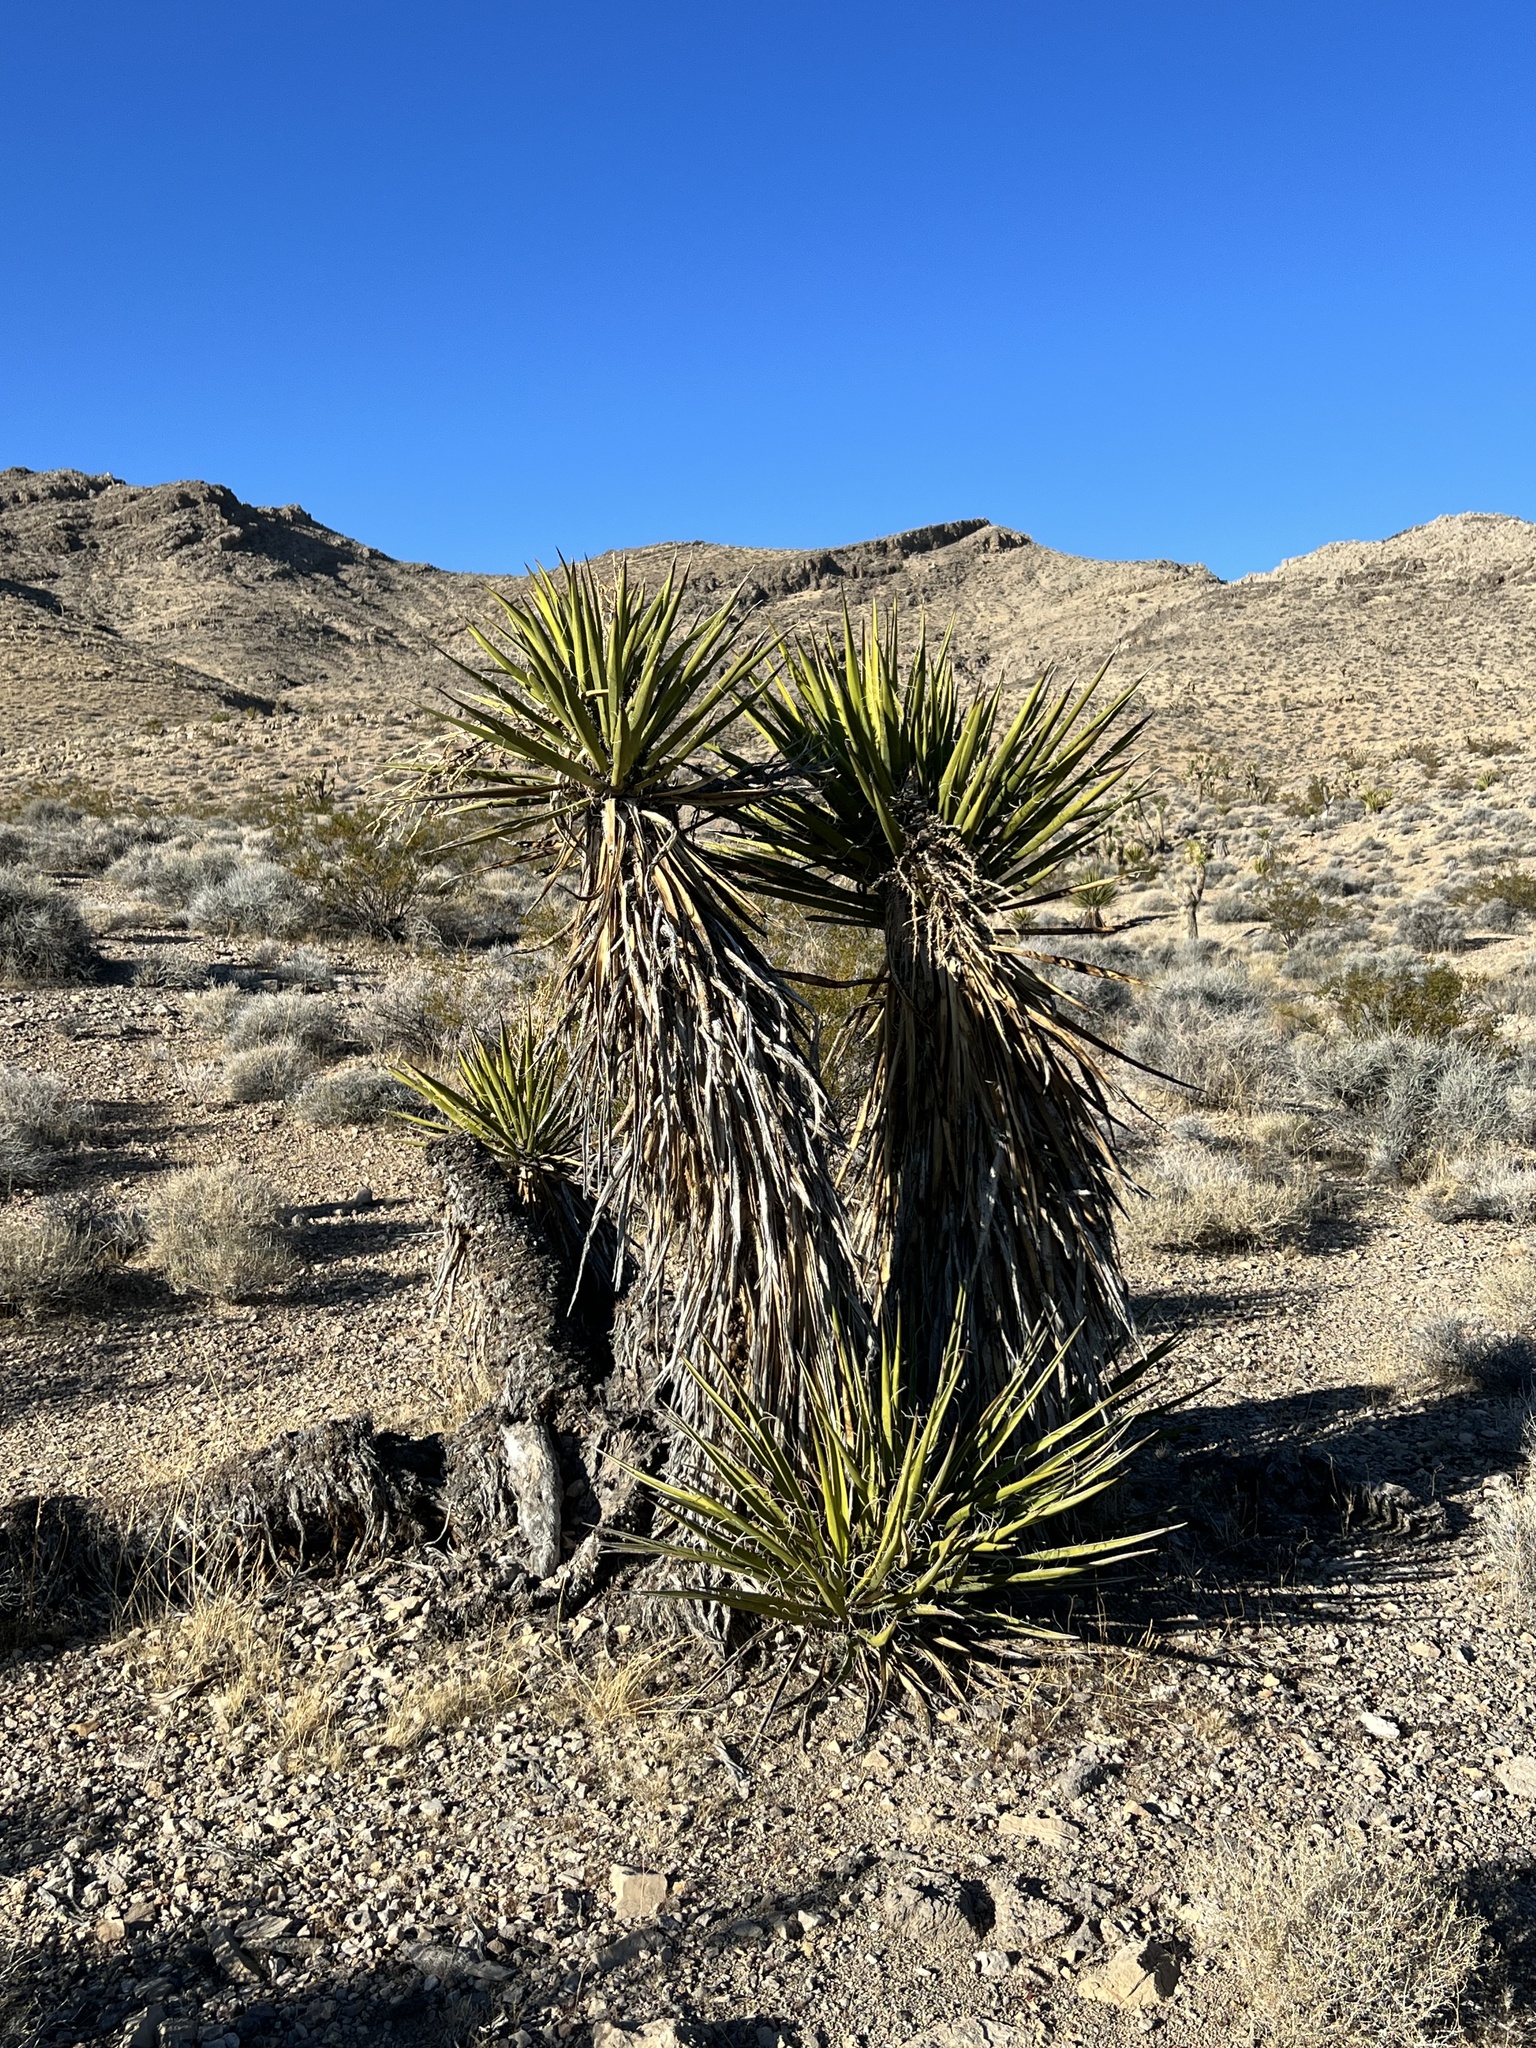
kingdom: Plantae
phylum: Tracheophyta
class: Liliopsida
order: Asparagales
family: Asparagaceae
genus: Yucca
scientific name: Yucca schidigera
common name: Mojave yucca
